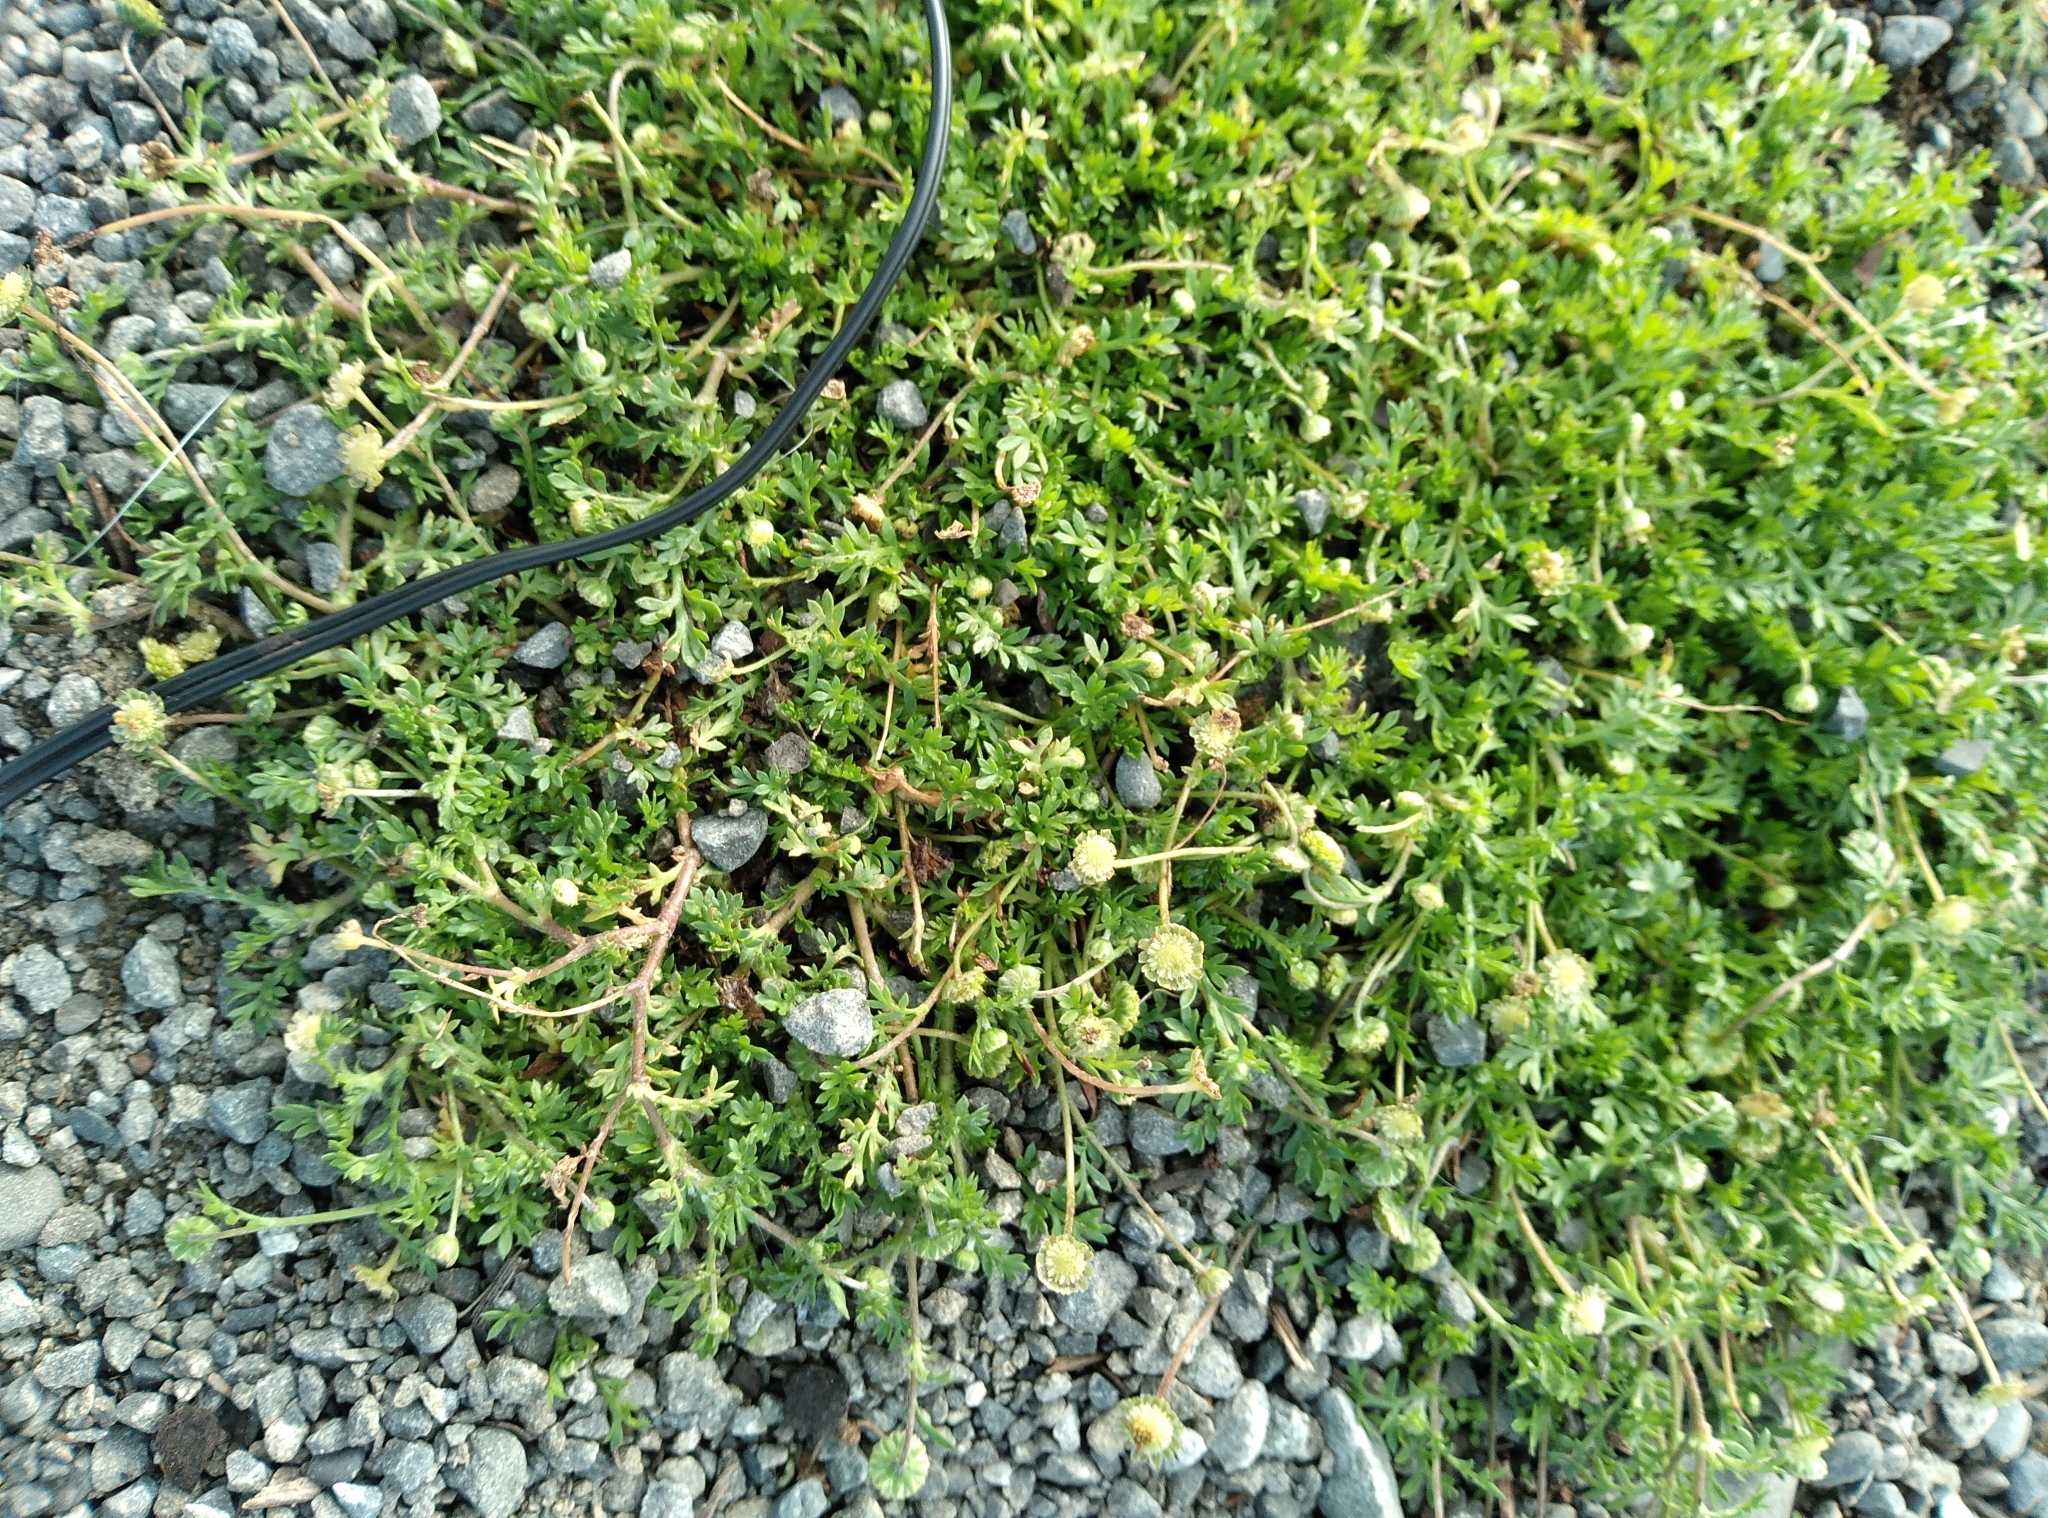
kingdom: Plantae
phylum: Tracheophyta
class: Magnoliopsida
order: Asterales
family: Asteraceae
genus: Cotula
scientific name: Cotula australis
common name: Australian waterbuttons
